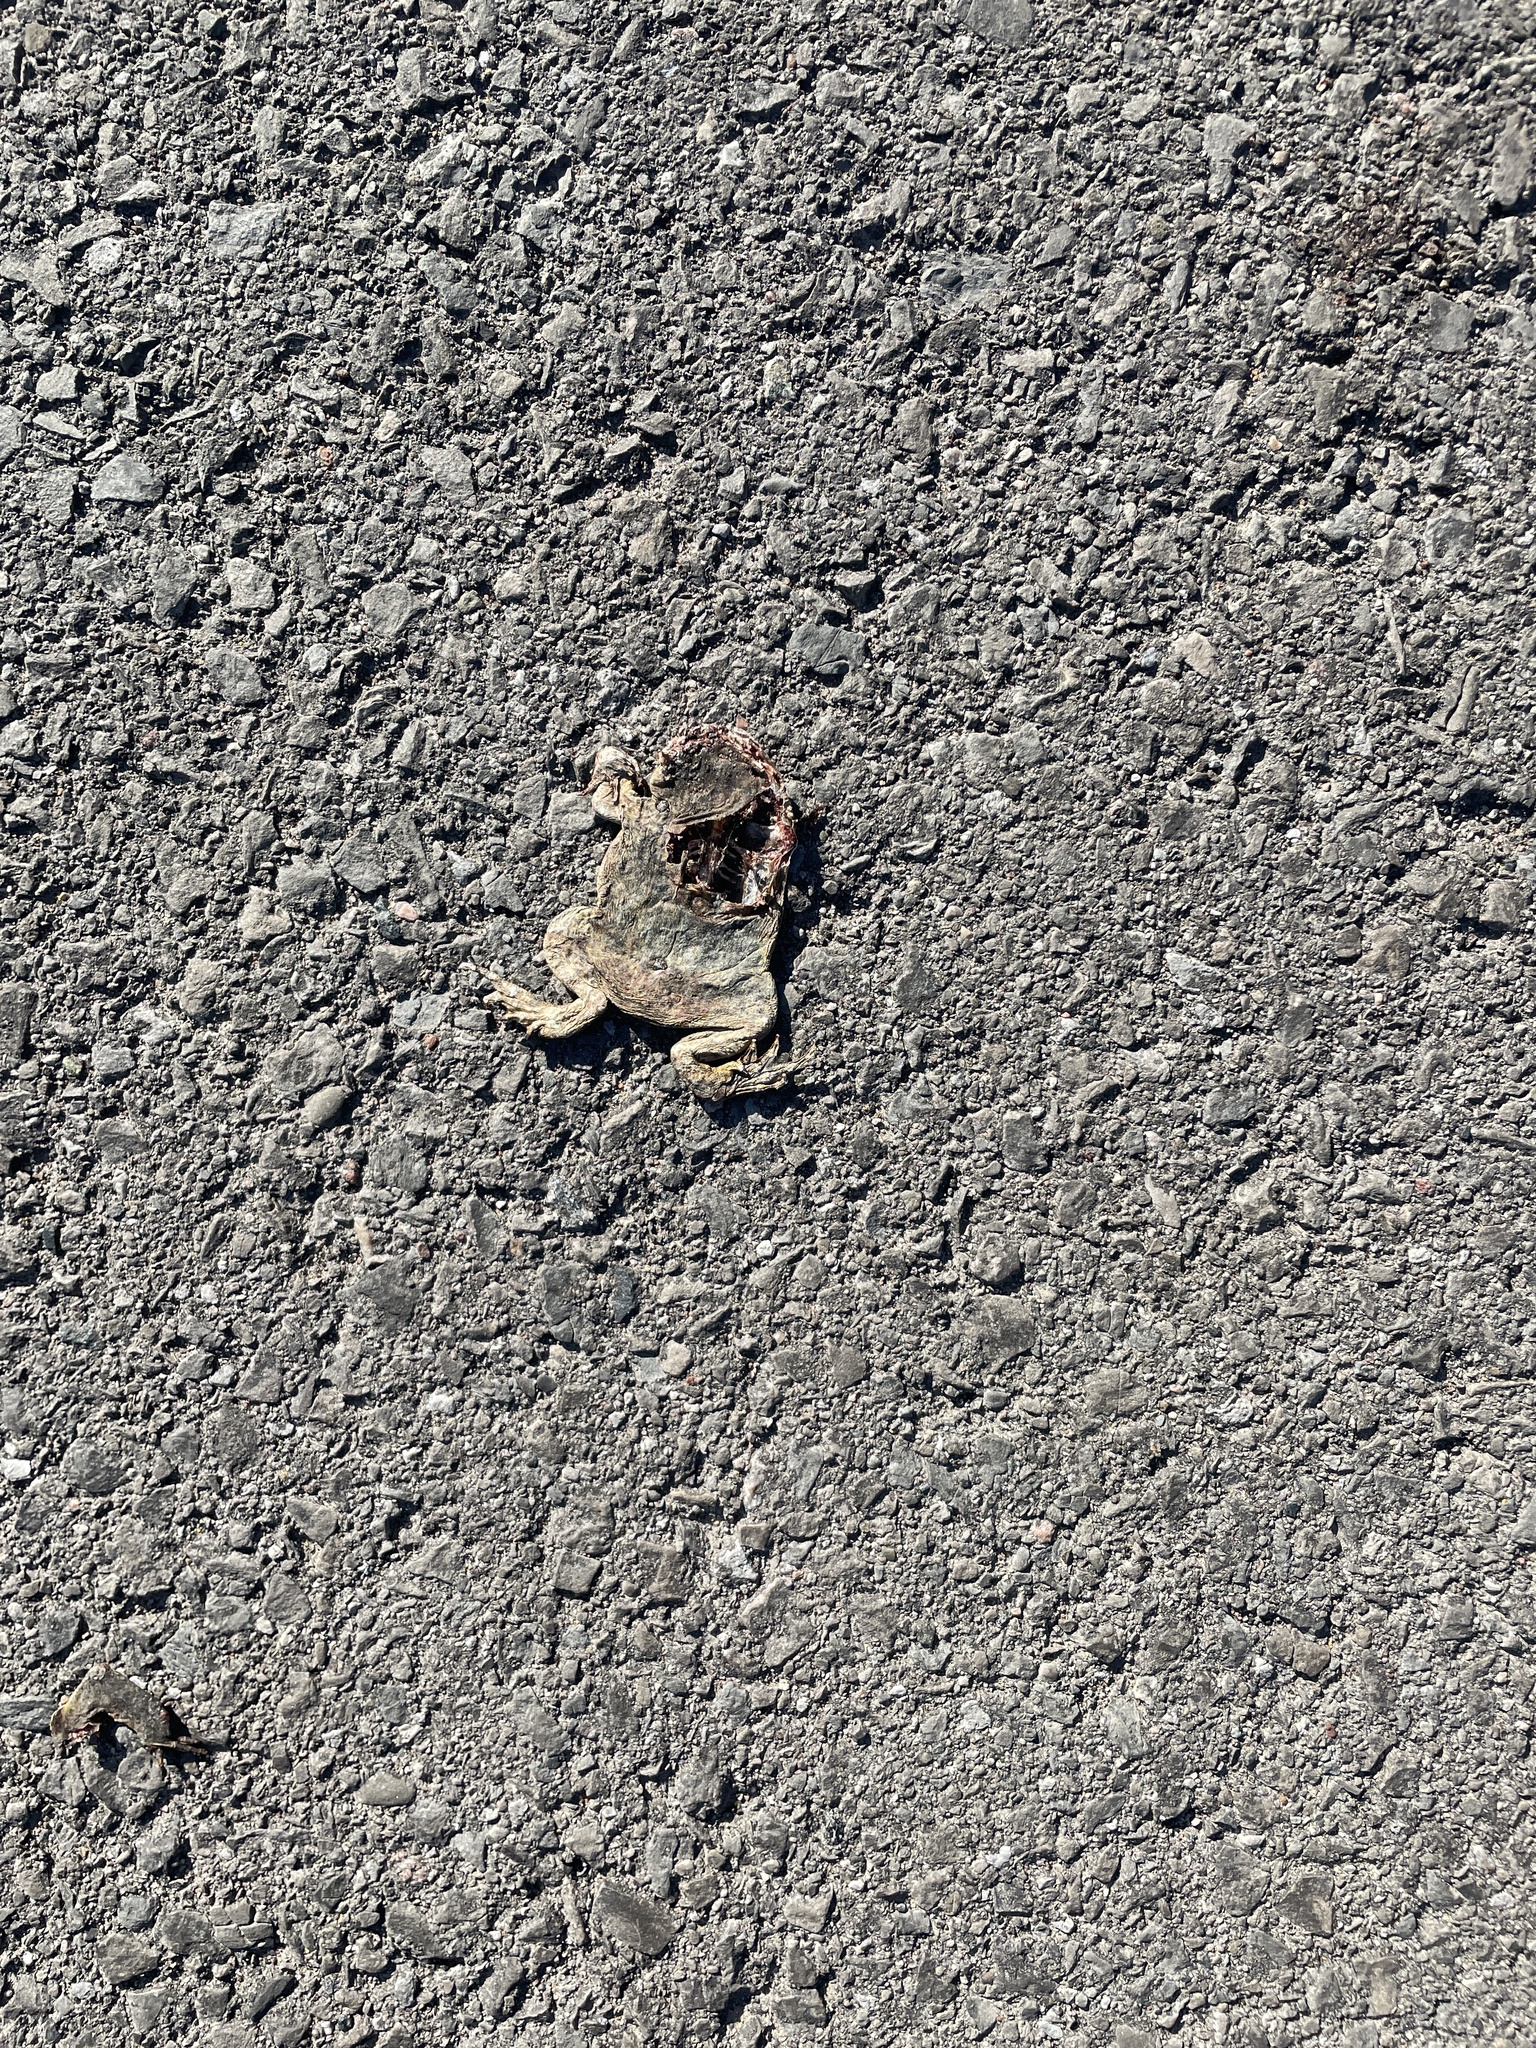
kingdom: Animalia
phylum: Chordata
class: Amphibia
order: Anura
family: Bufonidae
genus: Anaxyrus
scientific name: Anaxyrus americanus
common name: American toad
